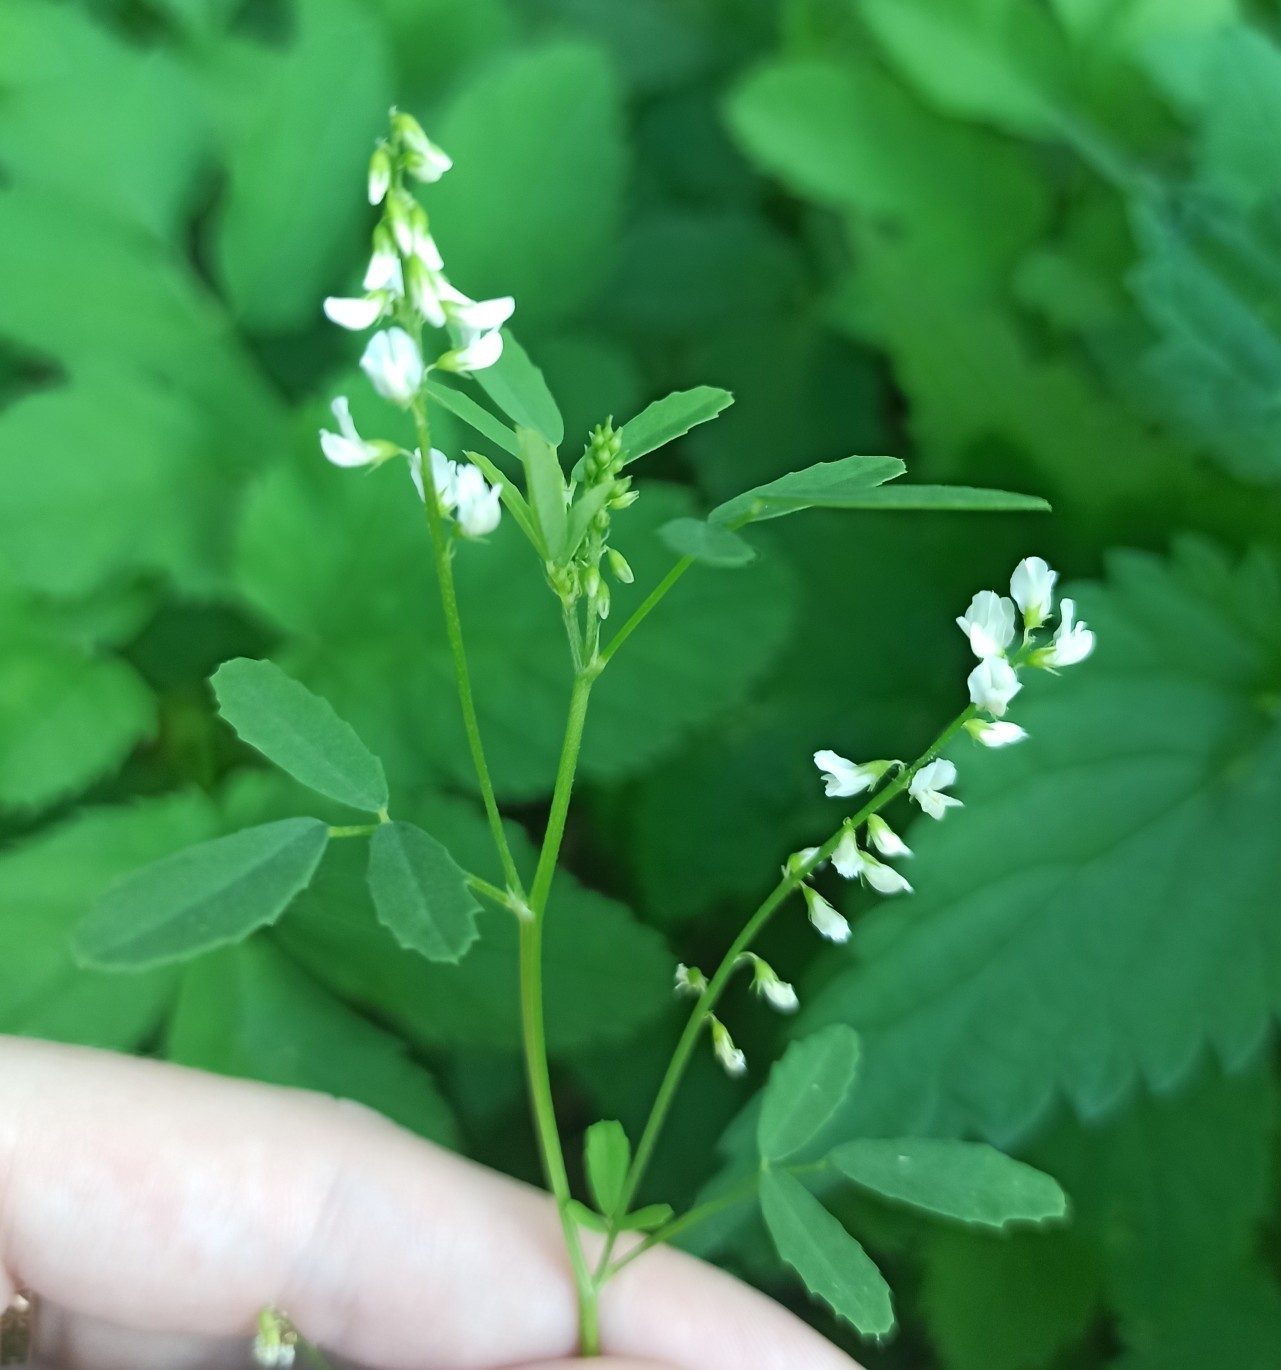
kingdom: Plantae
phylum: Tracheophyta
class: Magnoliopsida
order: Fabales
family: Fabaceae
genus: Melilotus
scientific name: Melilotus albus
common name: White melilot
